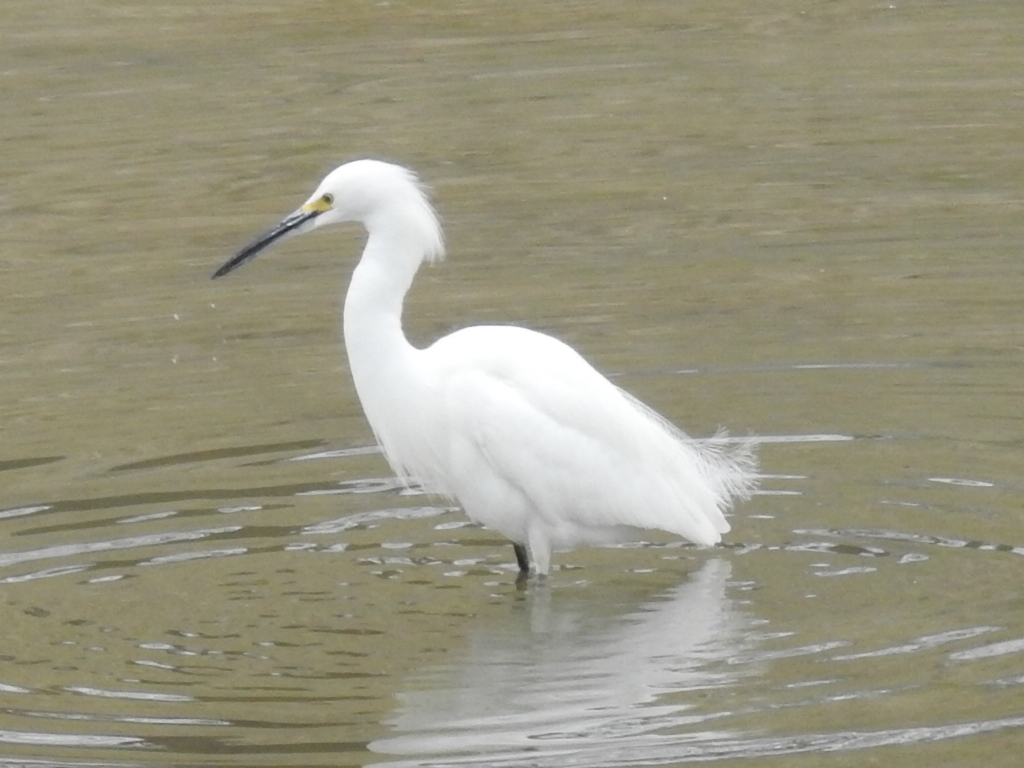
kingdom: Animalia
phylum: Chordata
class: Aves
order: Pelecaniformes
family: Ardeidae
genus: Egretta
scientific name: Egretta thula
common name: Snowy egret
